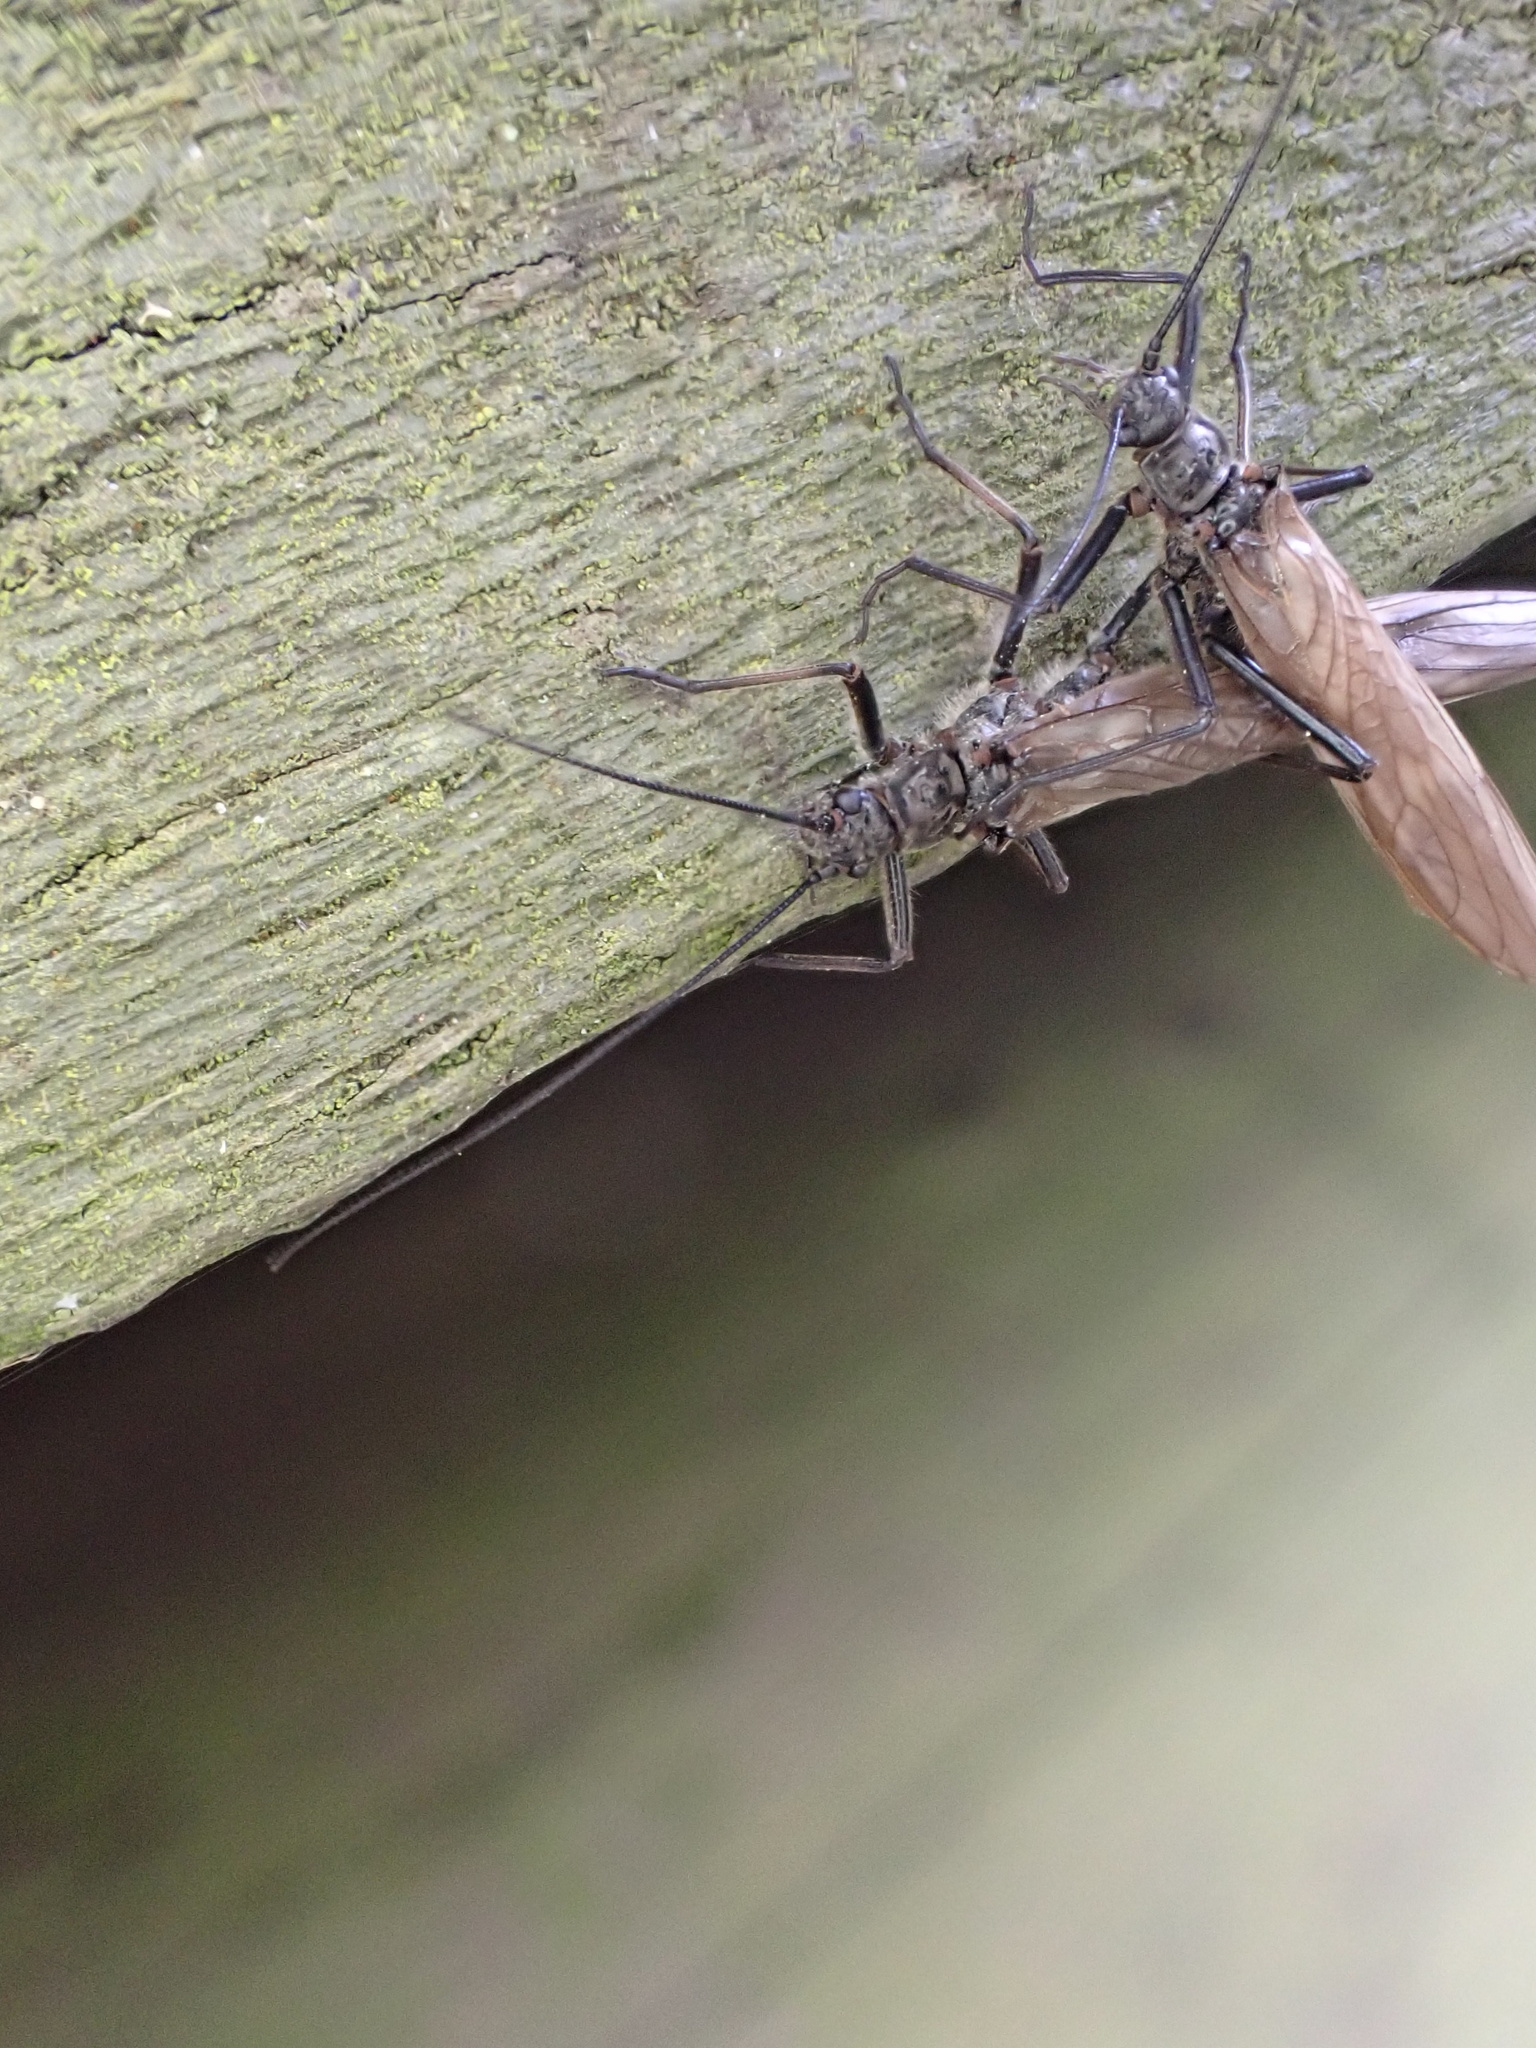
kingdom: Animalia
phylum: Arthropoda
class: Insecta
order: Plecoptera
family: Taeniopterygidae
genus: Taeniopteryx
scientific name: Taeniopteryx nebulosa
